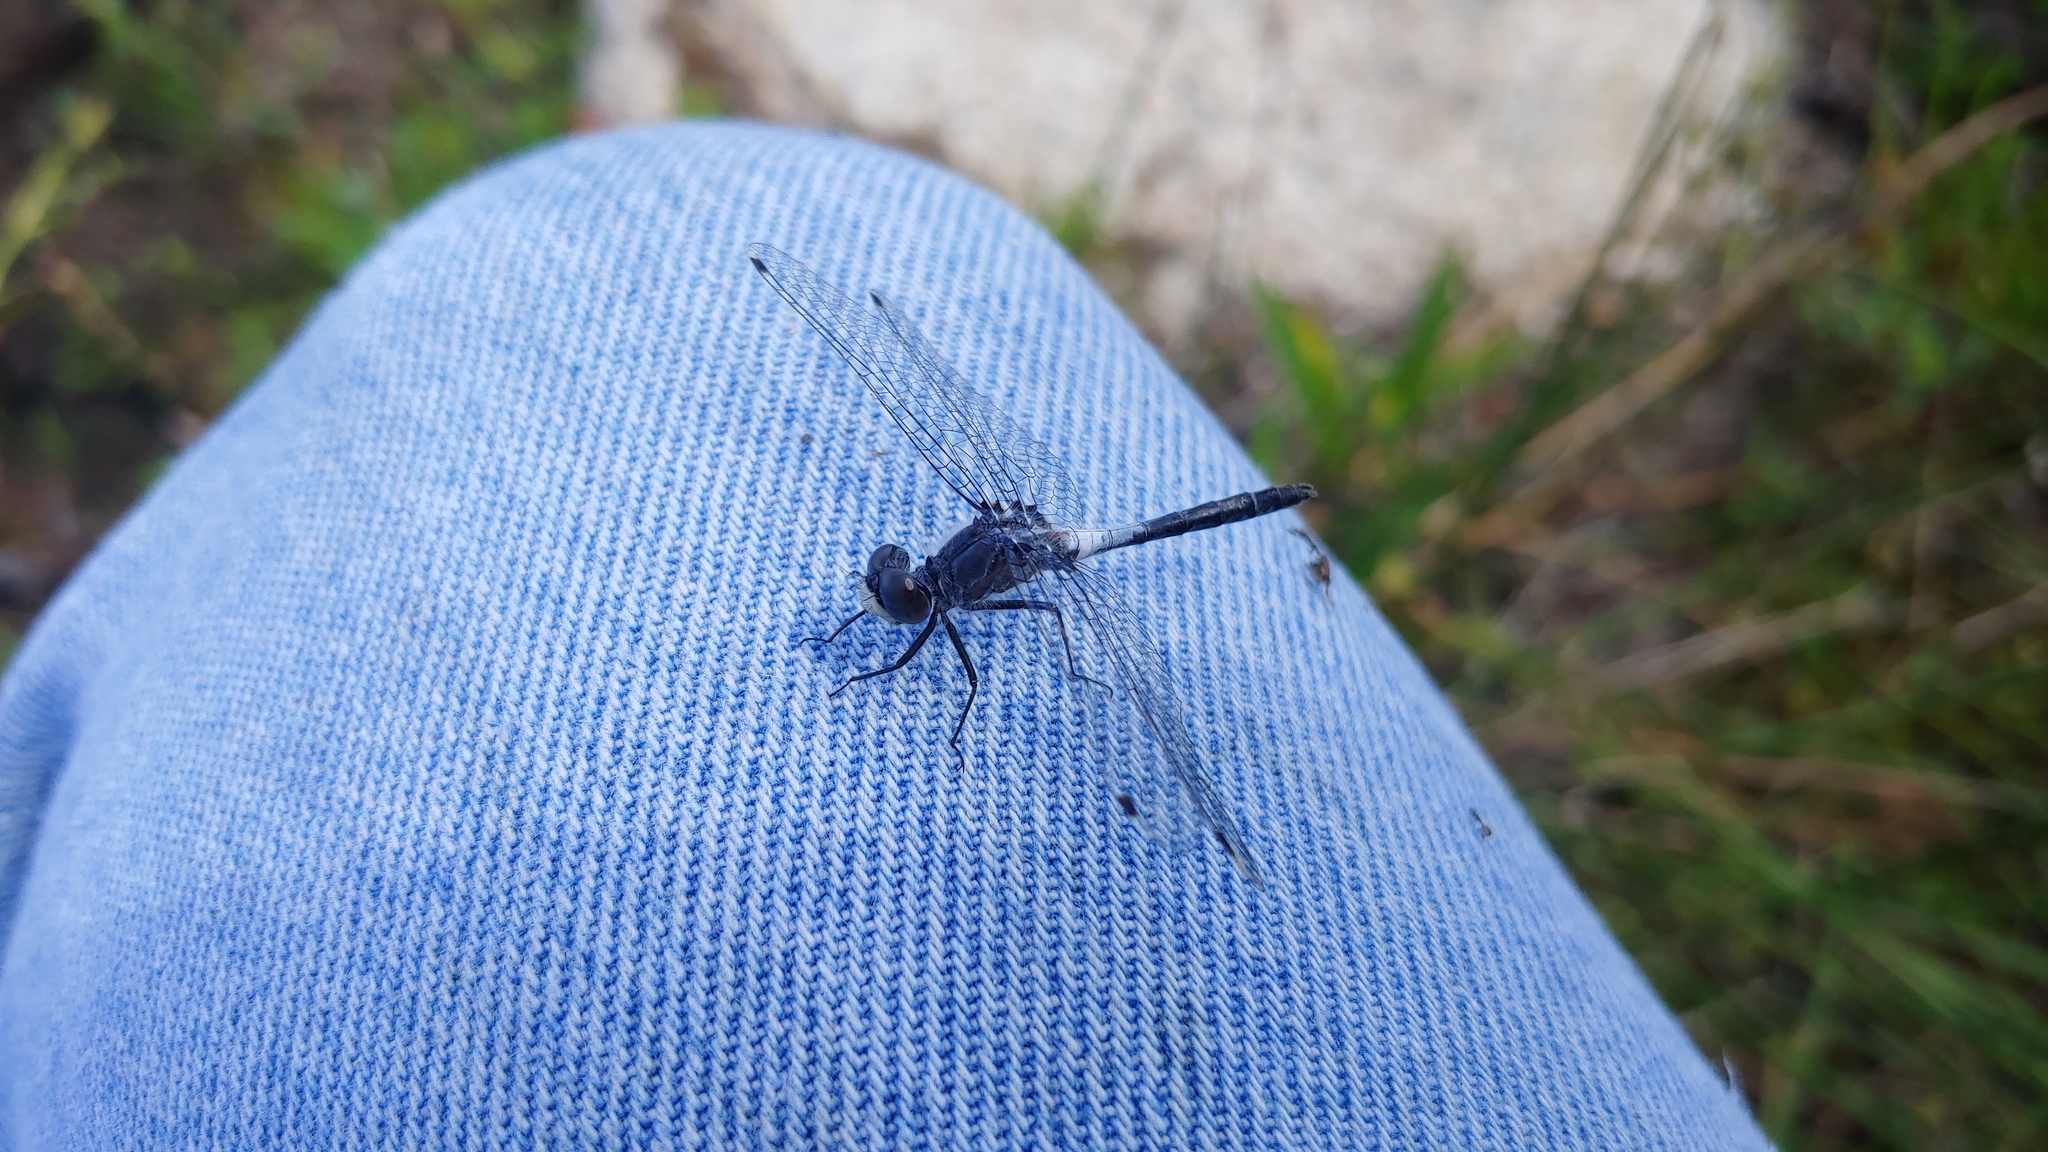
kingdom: Animalia
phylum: Arthropoda
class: Insecta
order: Odonata
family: Libellulidae
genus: Leucorrhinia
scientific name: Leucorrhinia frigida
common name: Frosted whiteface
